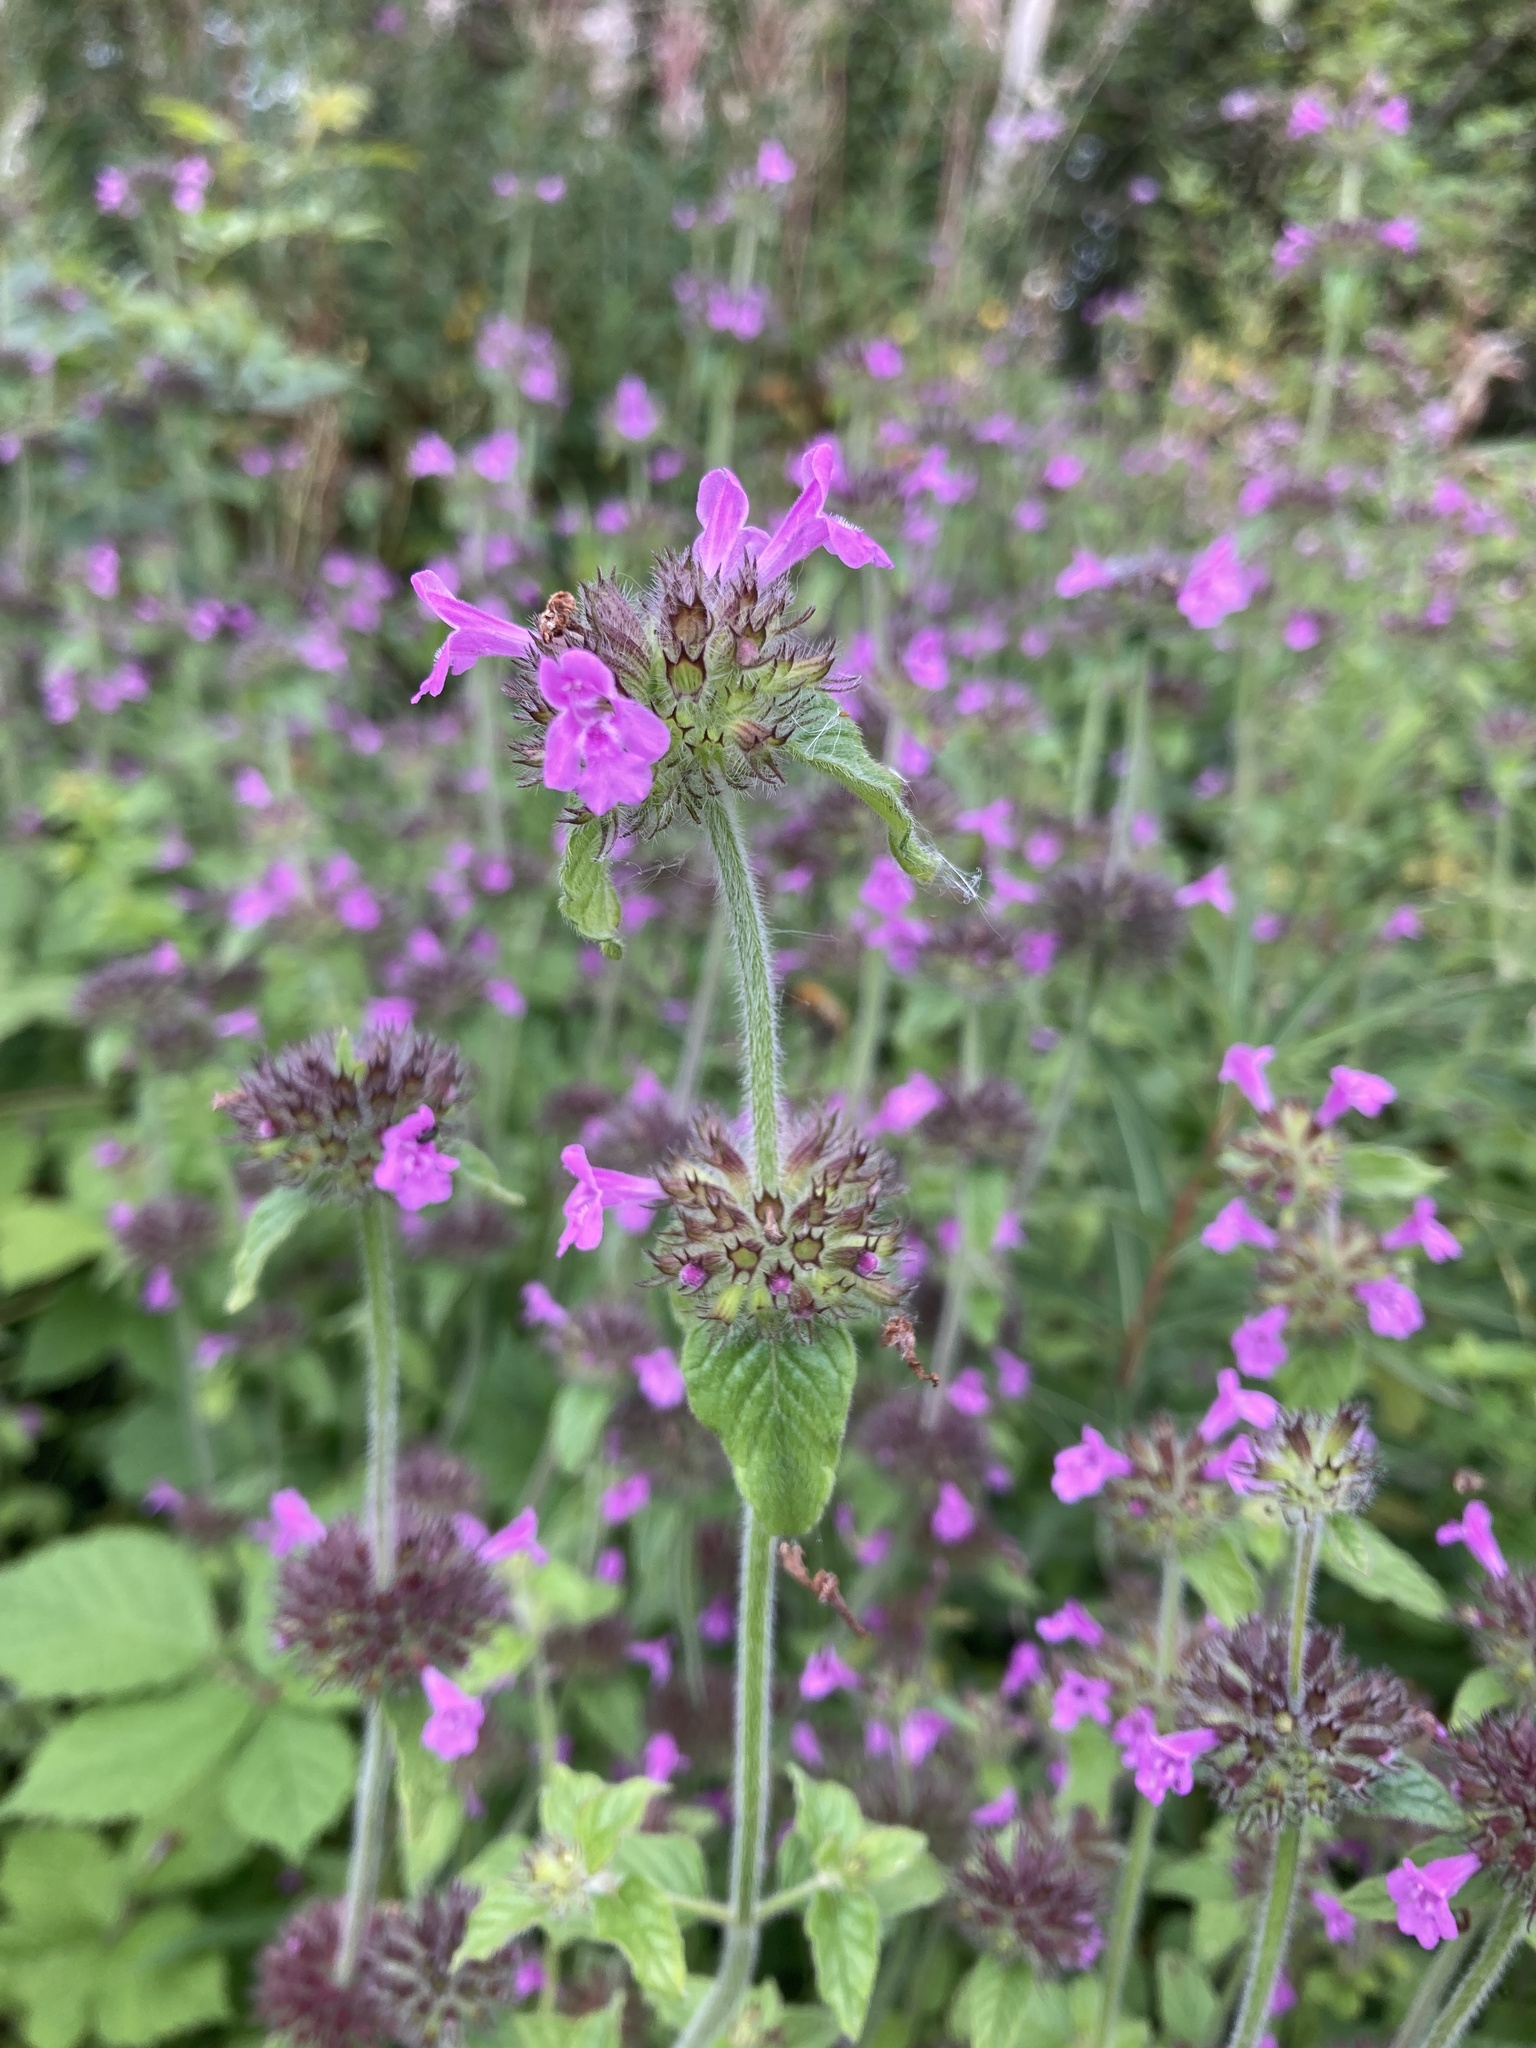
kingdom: Plantae
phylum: Tracheophyta
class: Magnoliopsida
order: Lamiales
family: Lamiaceae
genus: Clinopodium
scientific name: Clinopodium vulgare
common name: Wild basil
